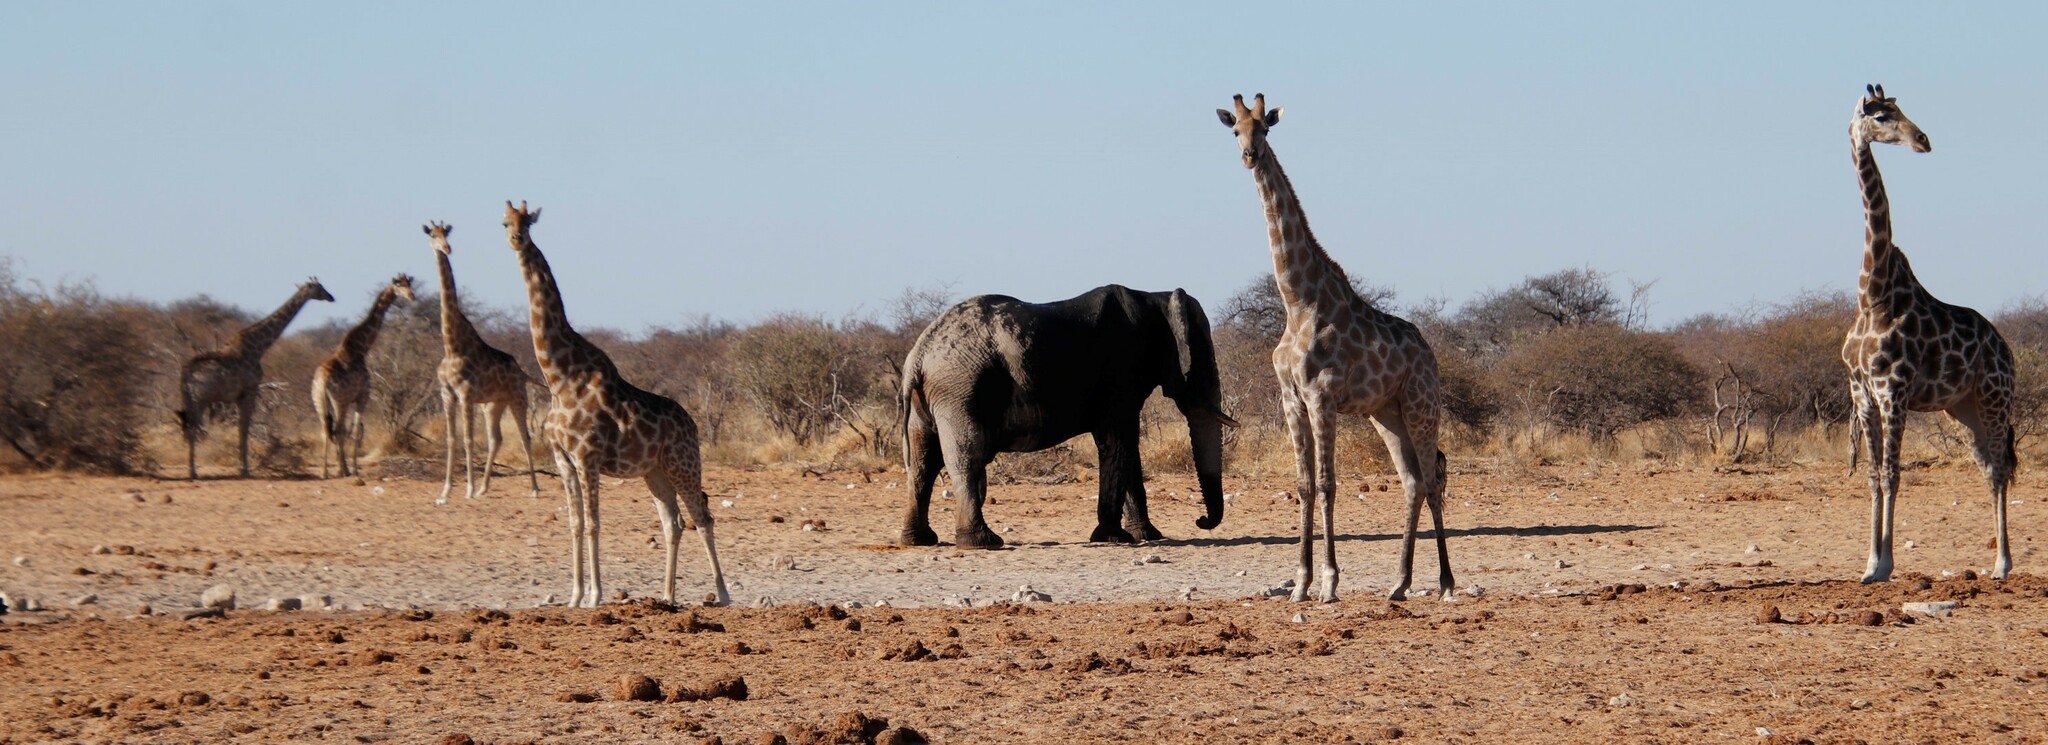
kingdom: Animalia
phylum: Chordata
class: Mammalia
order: Proboscidea
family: Elephantidae
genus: Loxodonta
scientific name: Loxodonta africana
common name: African elephant
